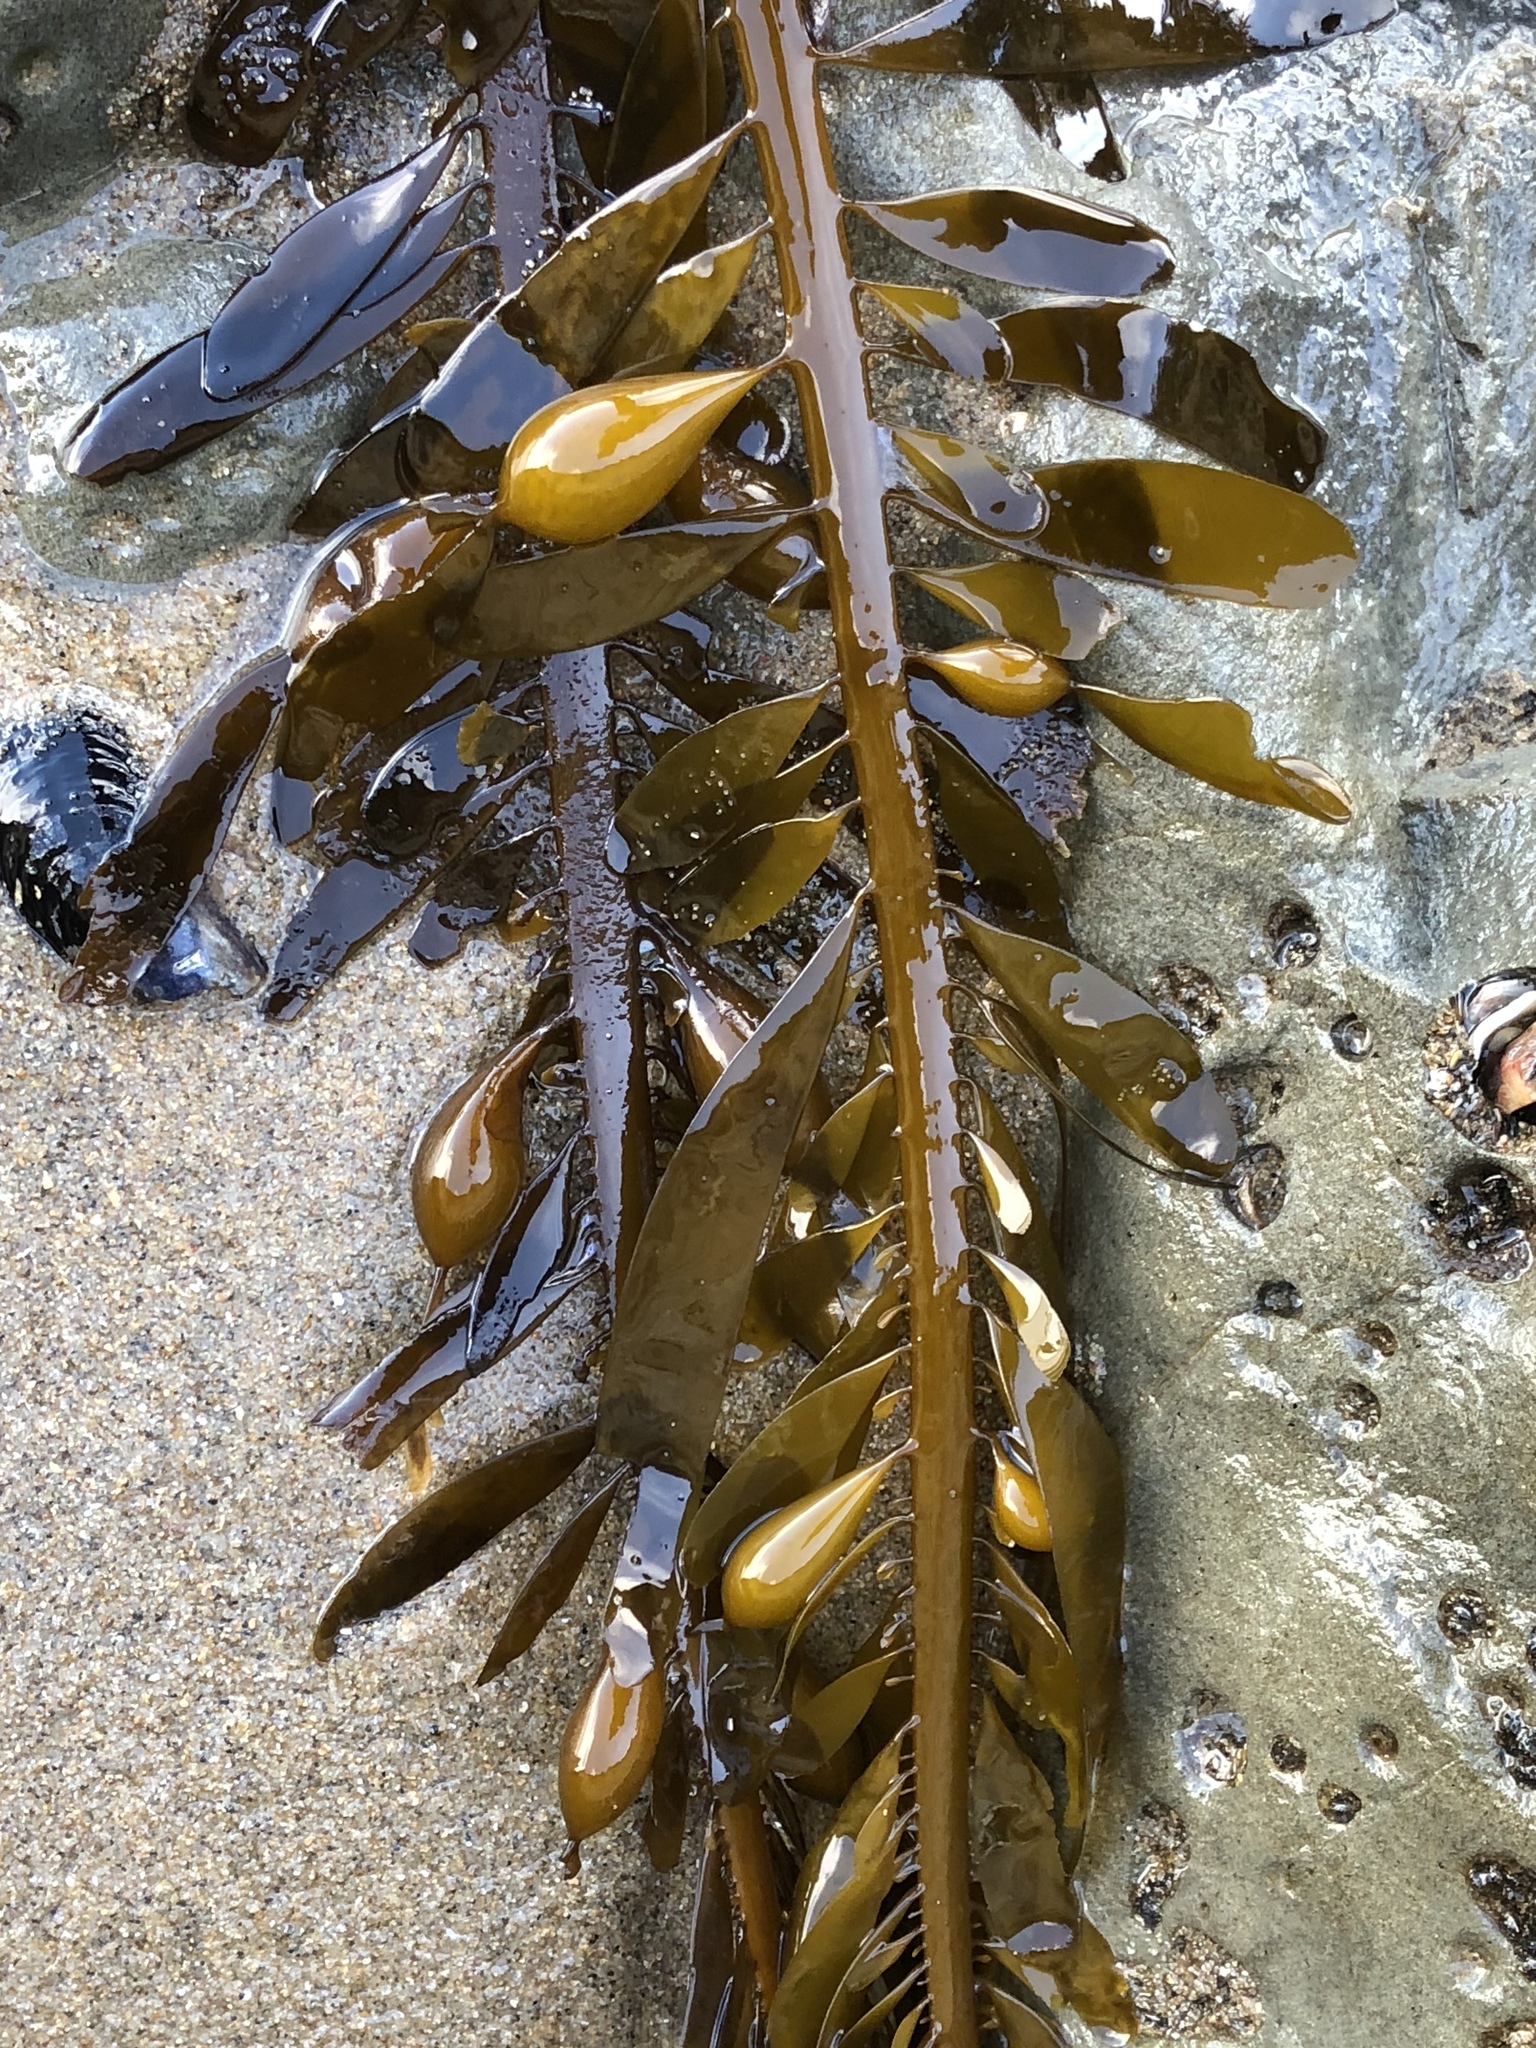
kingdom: Chromista
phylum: Ochrophyta
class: Phaeophyceae
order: Laminariales
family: Lessoniaceae
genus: Egregia
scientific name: Egregia menziesii
